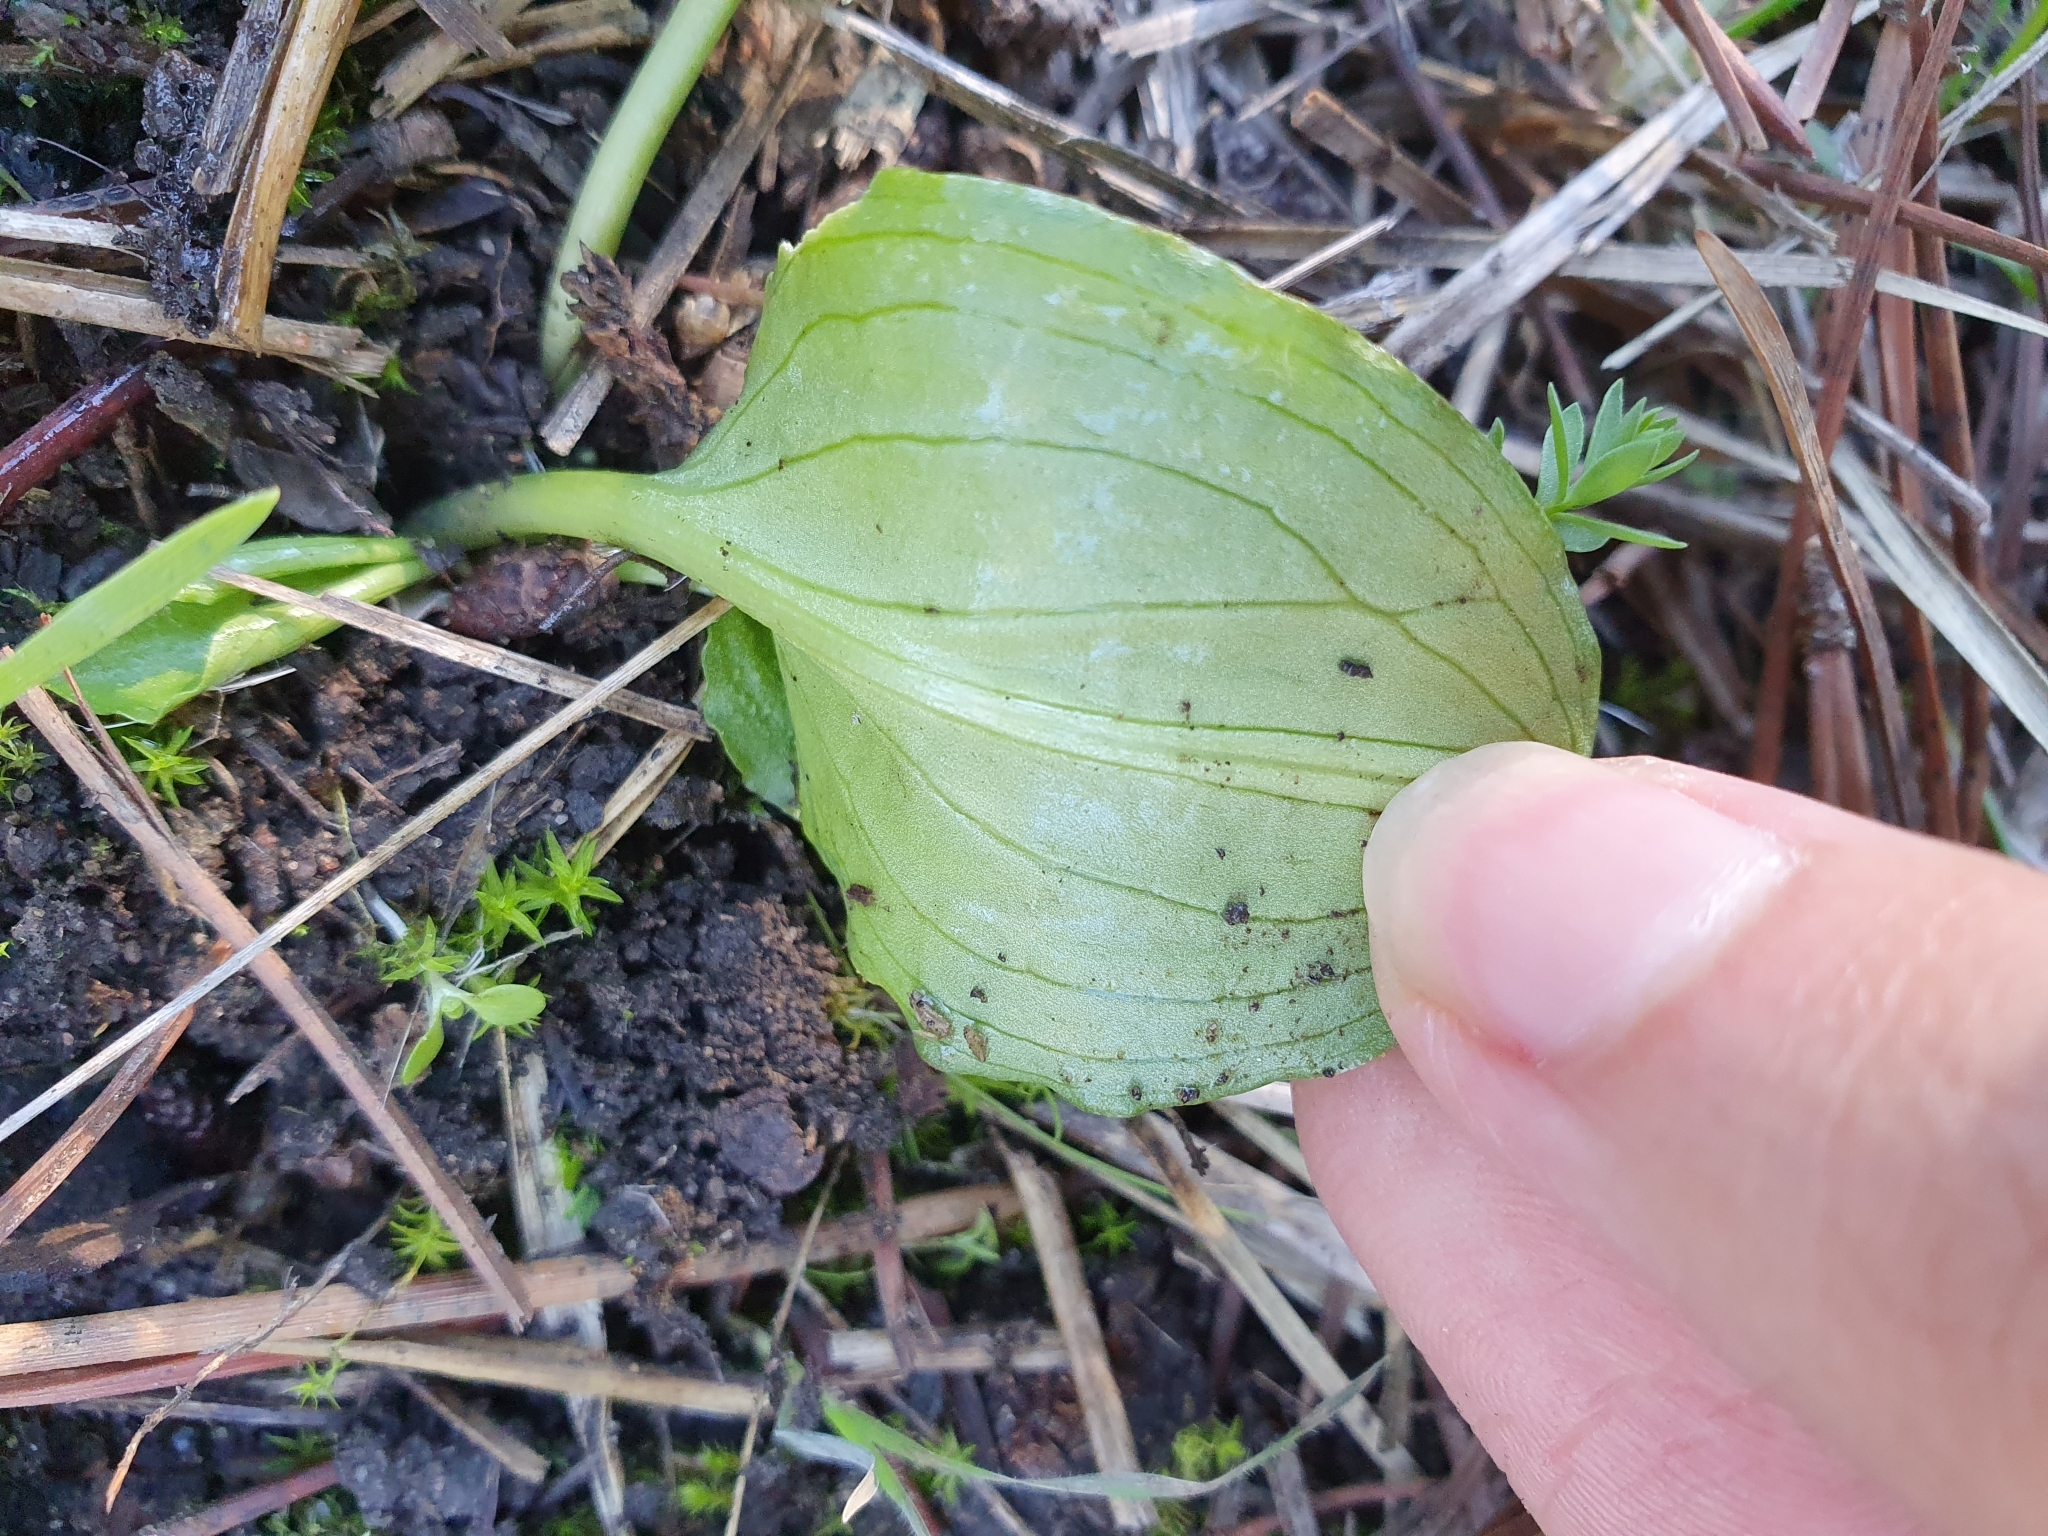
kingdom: Plantae
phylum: Tracheophyta
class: Liliopsida
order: Alismatales
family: Araceae
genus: Ambrosina
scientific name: Ambrosina bassii
